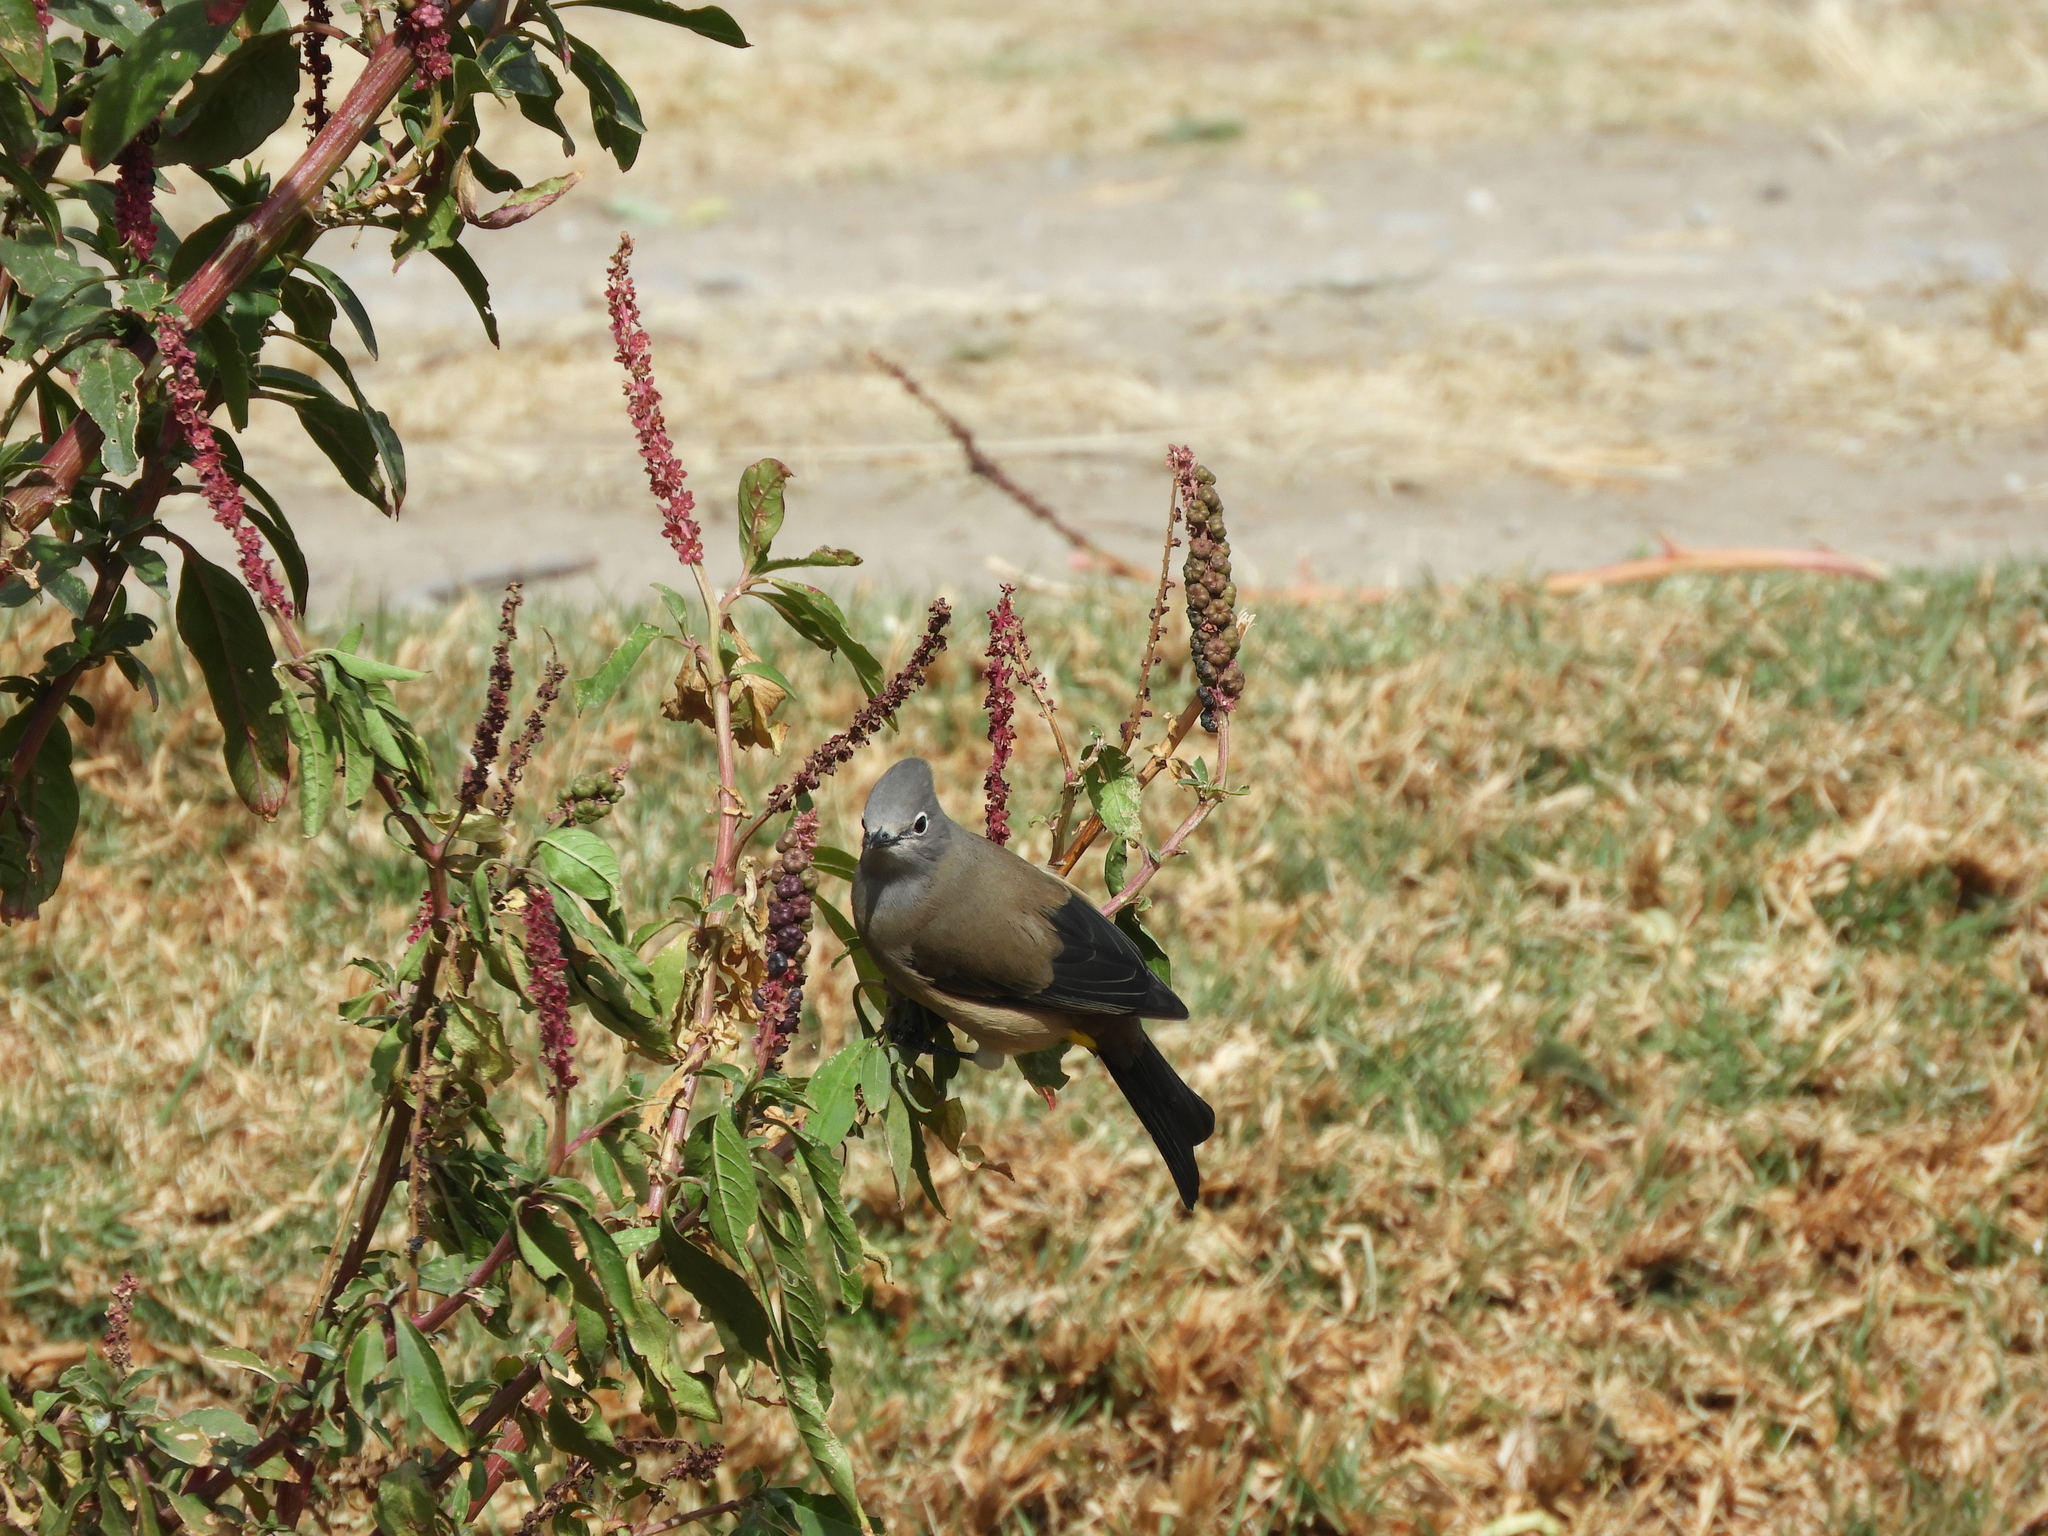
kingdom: Animalia
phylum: Chordata
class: Aves
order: Passeriformes
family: Ptilogonatidae
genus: Ptilogonys
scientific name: Ptilogonys cinereus
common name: Gray silky-flycatcher
